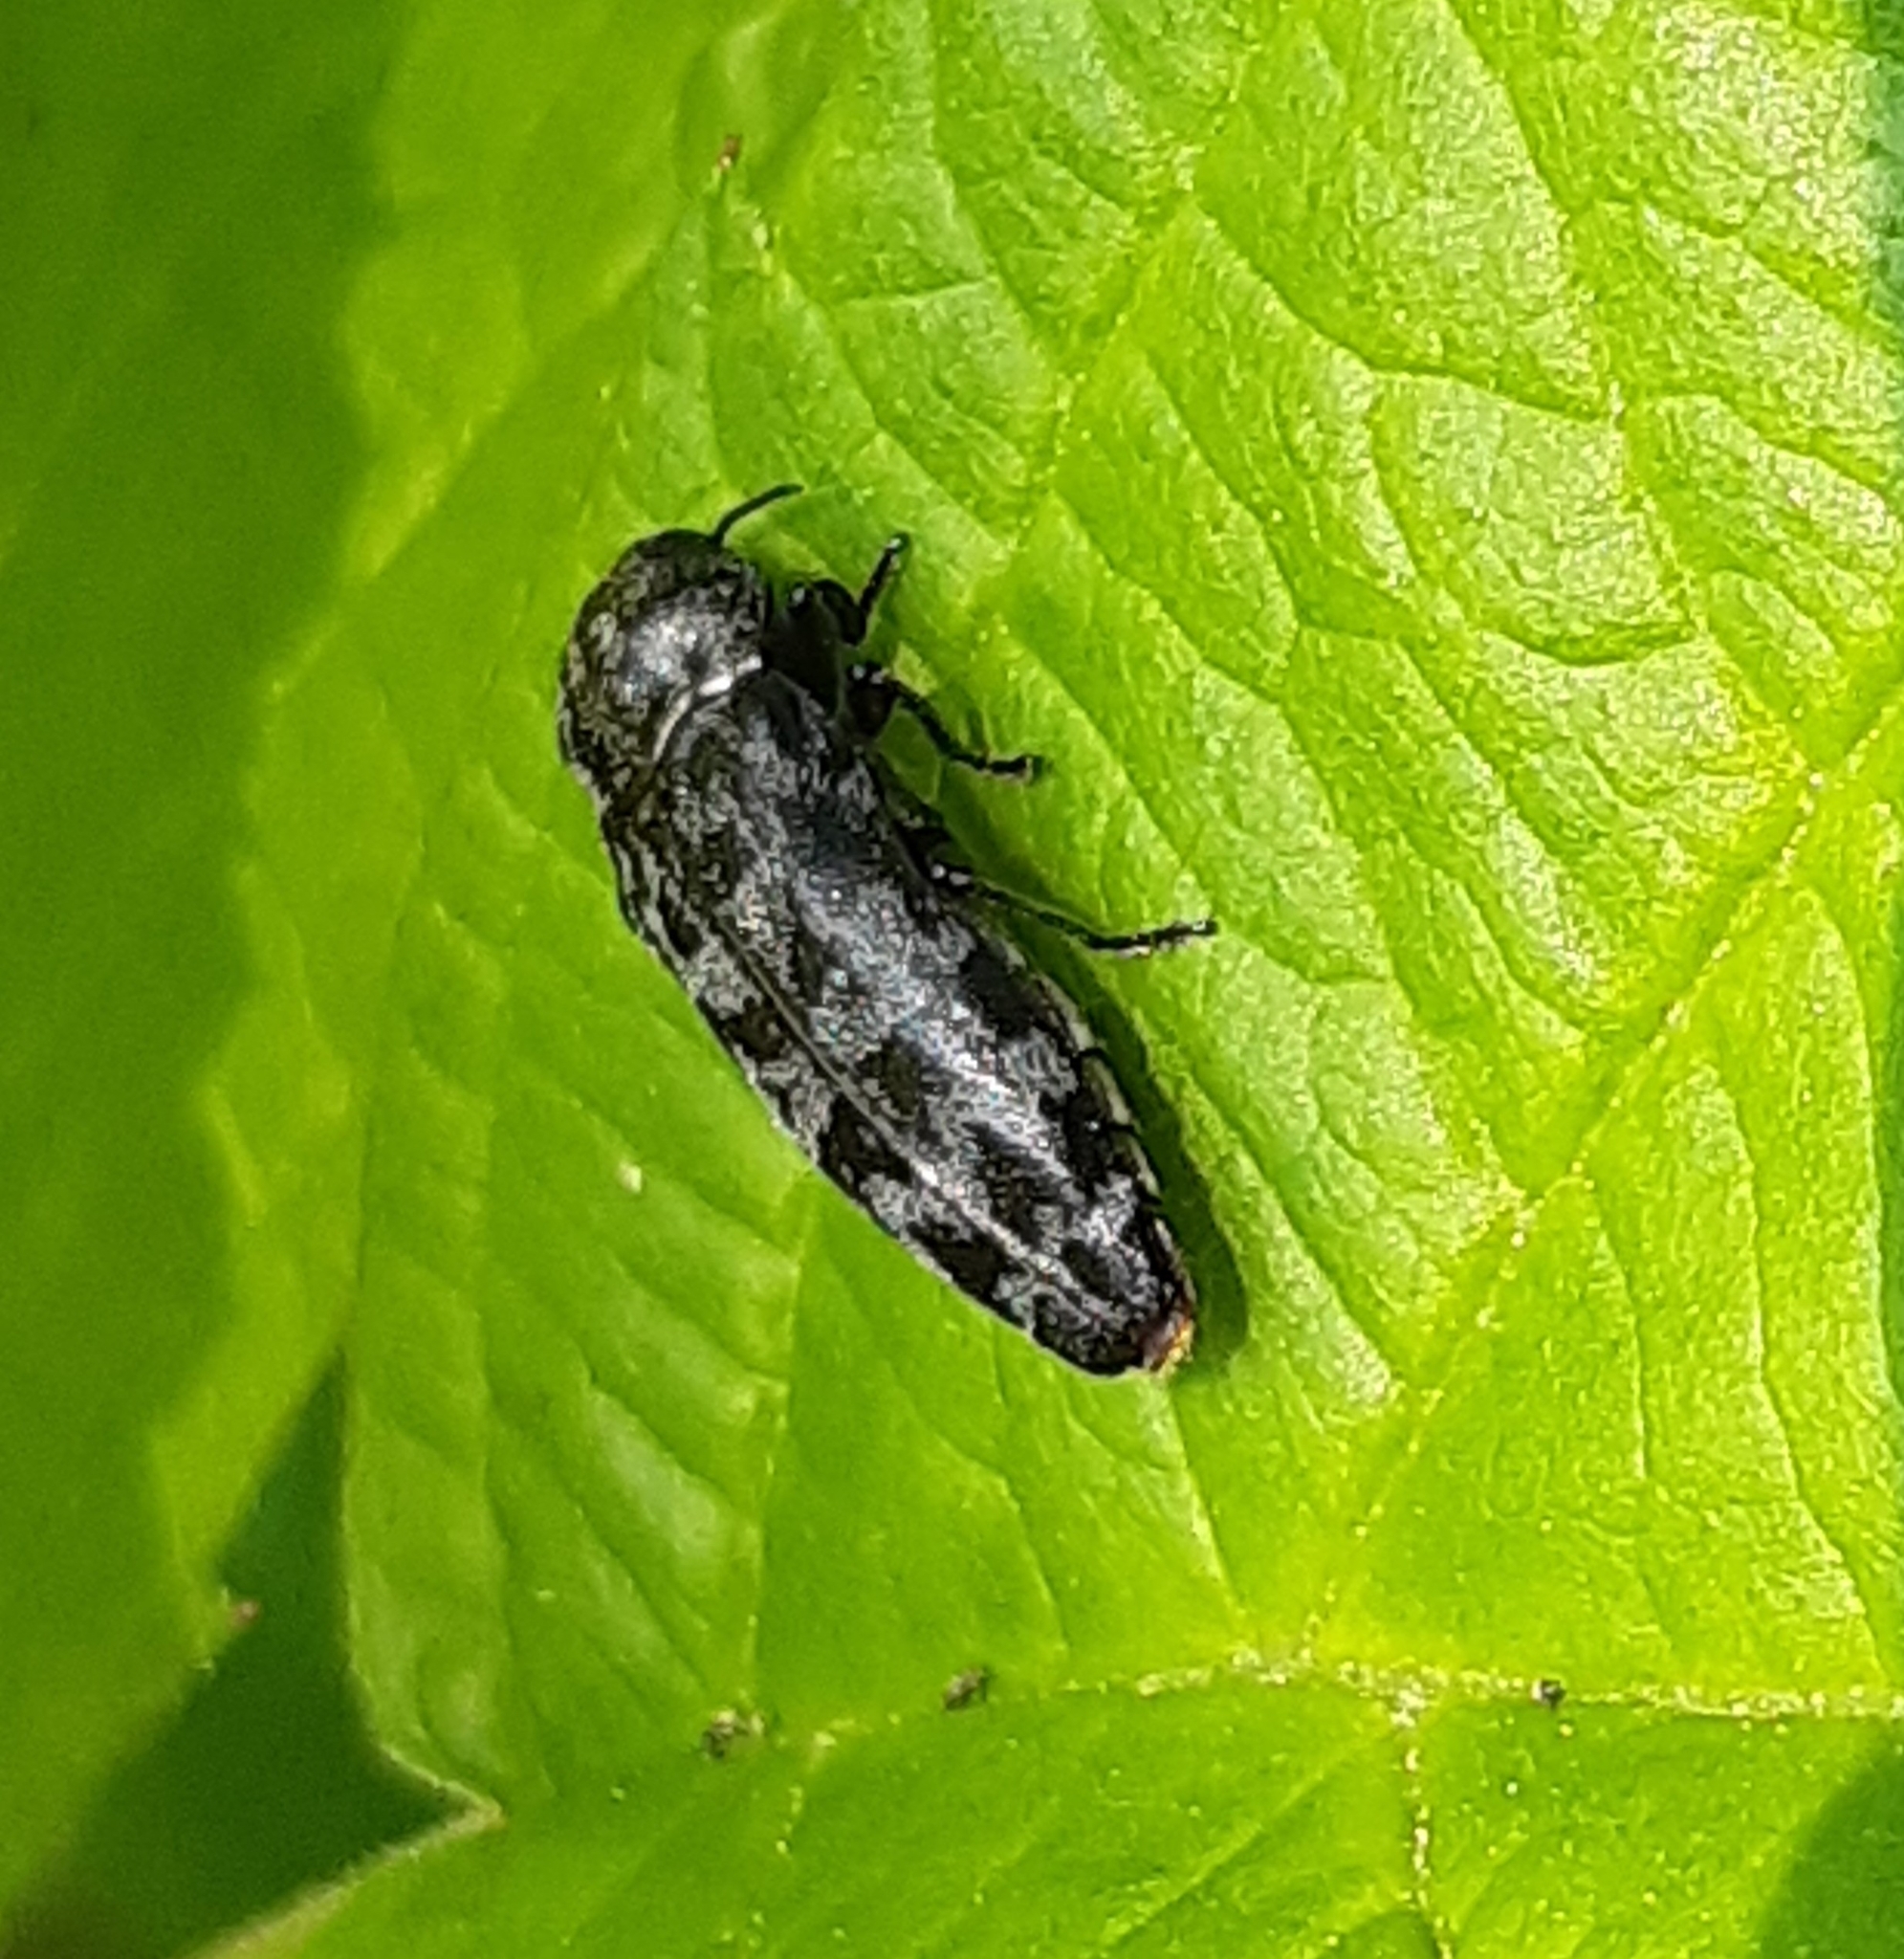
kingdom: Animalia
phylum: Arthropoda
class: Insecta
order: Coleoptera
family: Buprestidae
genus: Coraebus
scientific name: Coraebus rubi
